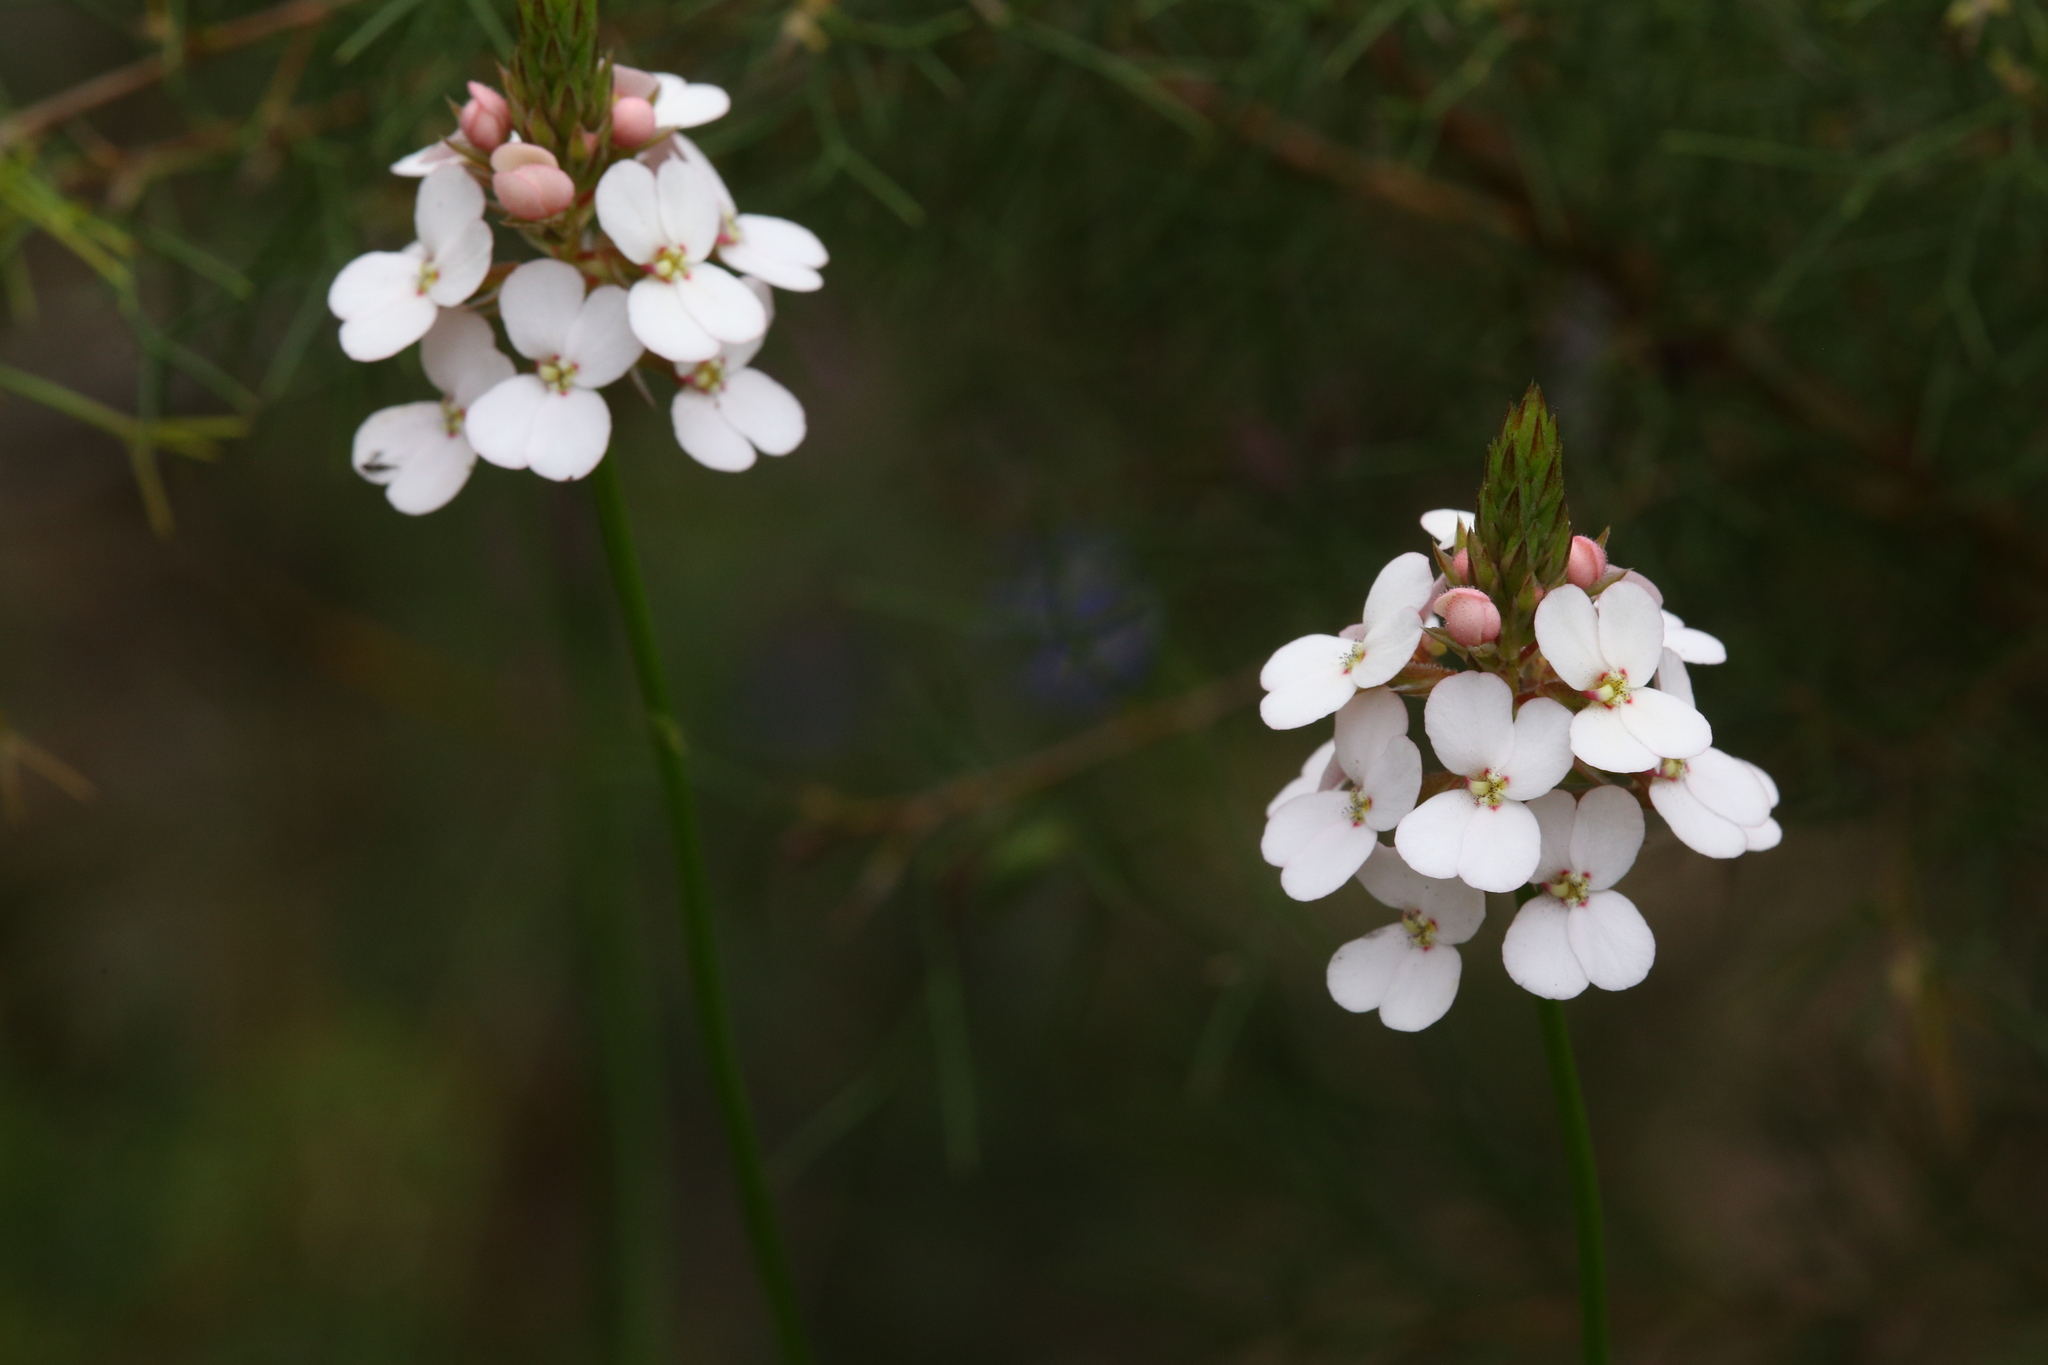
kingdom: Plantae
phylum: Tracheophyta
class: Magnoliopsida
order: Asterales
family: Stylidiaceae
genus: Stylidium
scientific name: Stylidium scariosum
